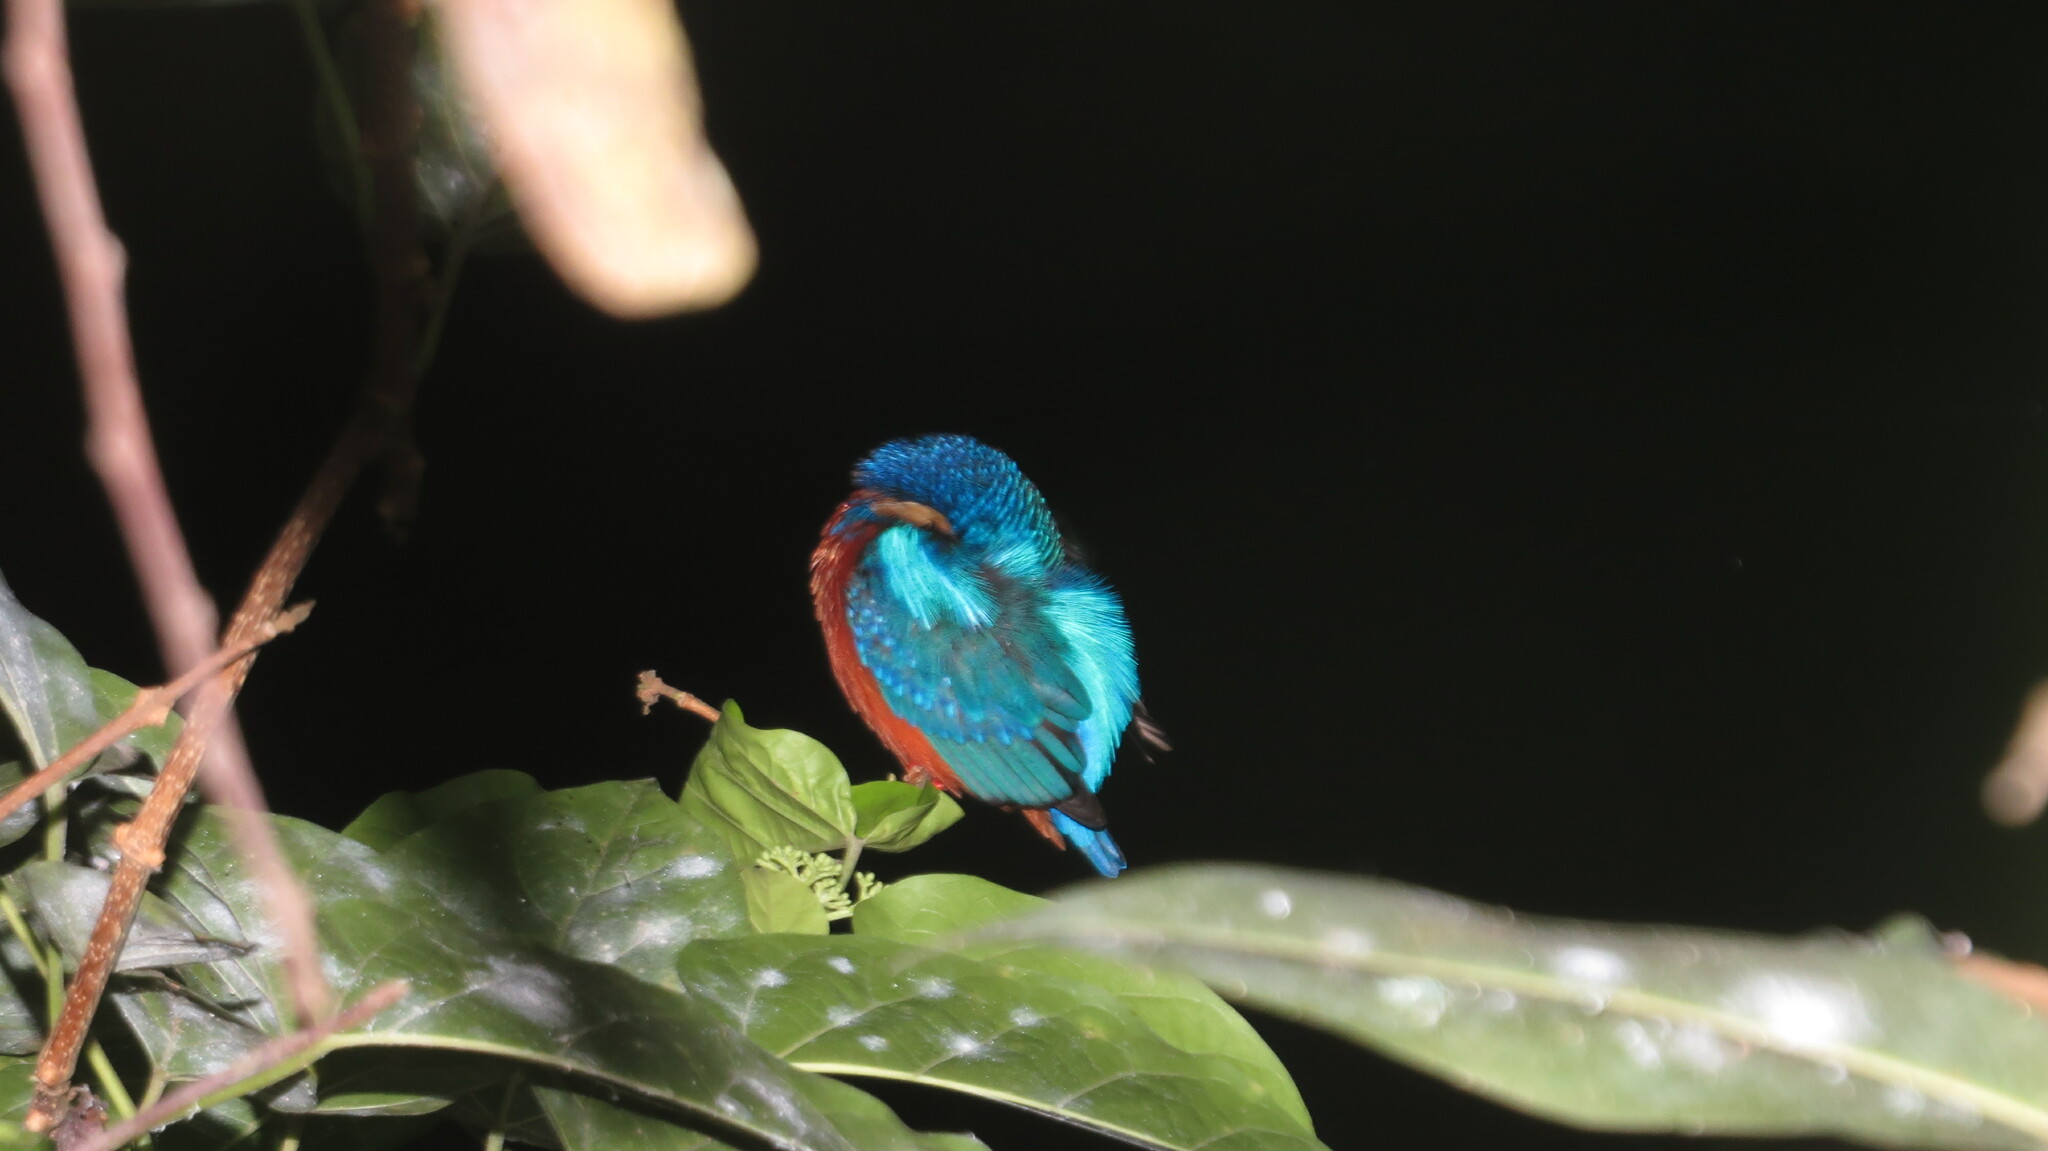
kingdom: Animalia
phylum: Chordata
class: Aves
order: Coraciiformes
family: Alcedinidae
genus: Alcedo
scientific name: Alcedo atthis
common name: Common kingfisher
